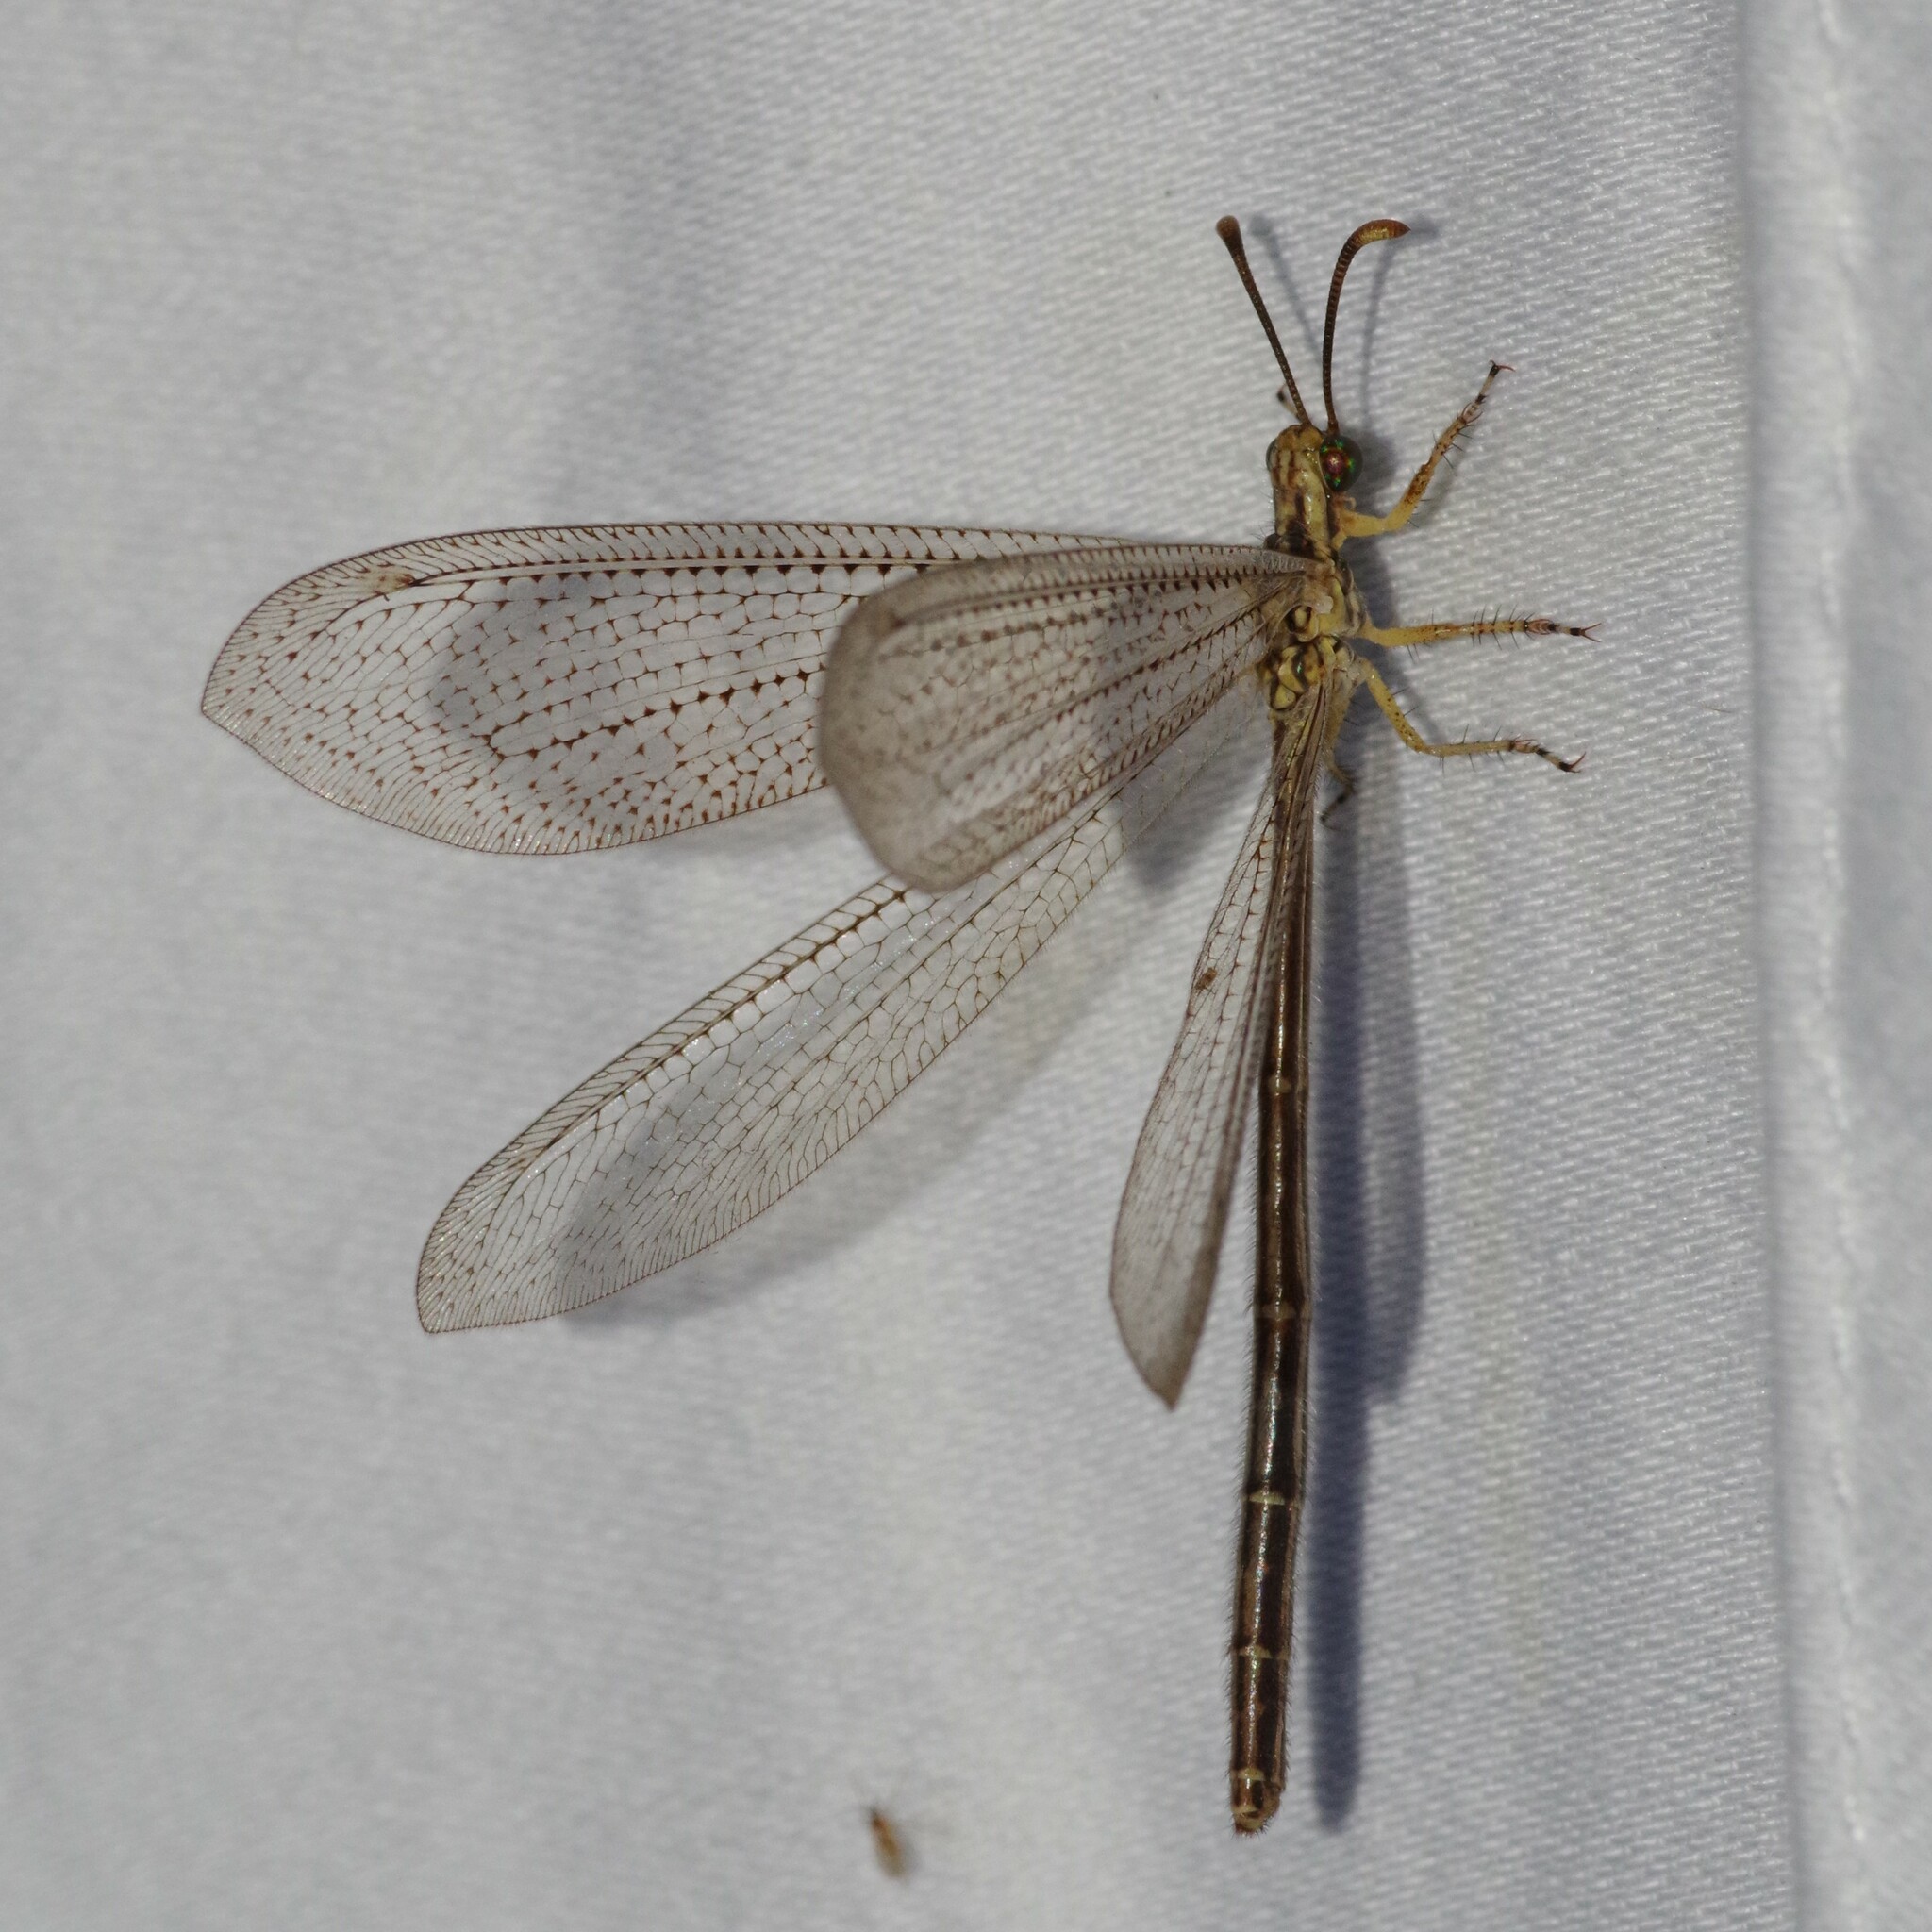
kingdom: Animalia
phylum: Arthropoda
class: Insecta
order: Neuroptera
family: Myrmeleontidae
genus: Brachynemurus
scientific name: Brachynemurus abdominalis
